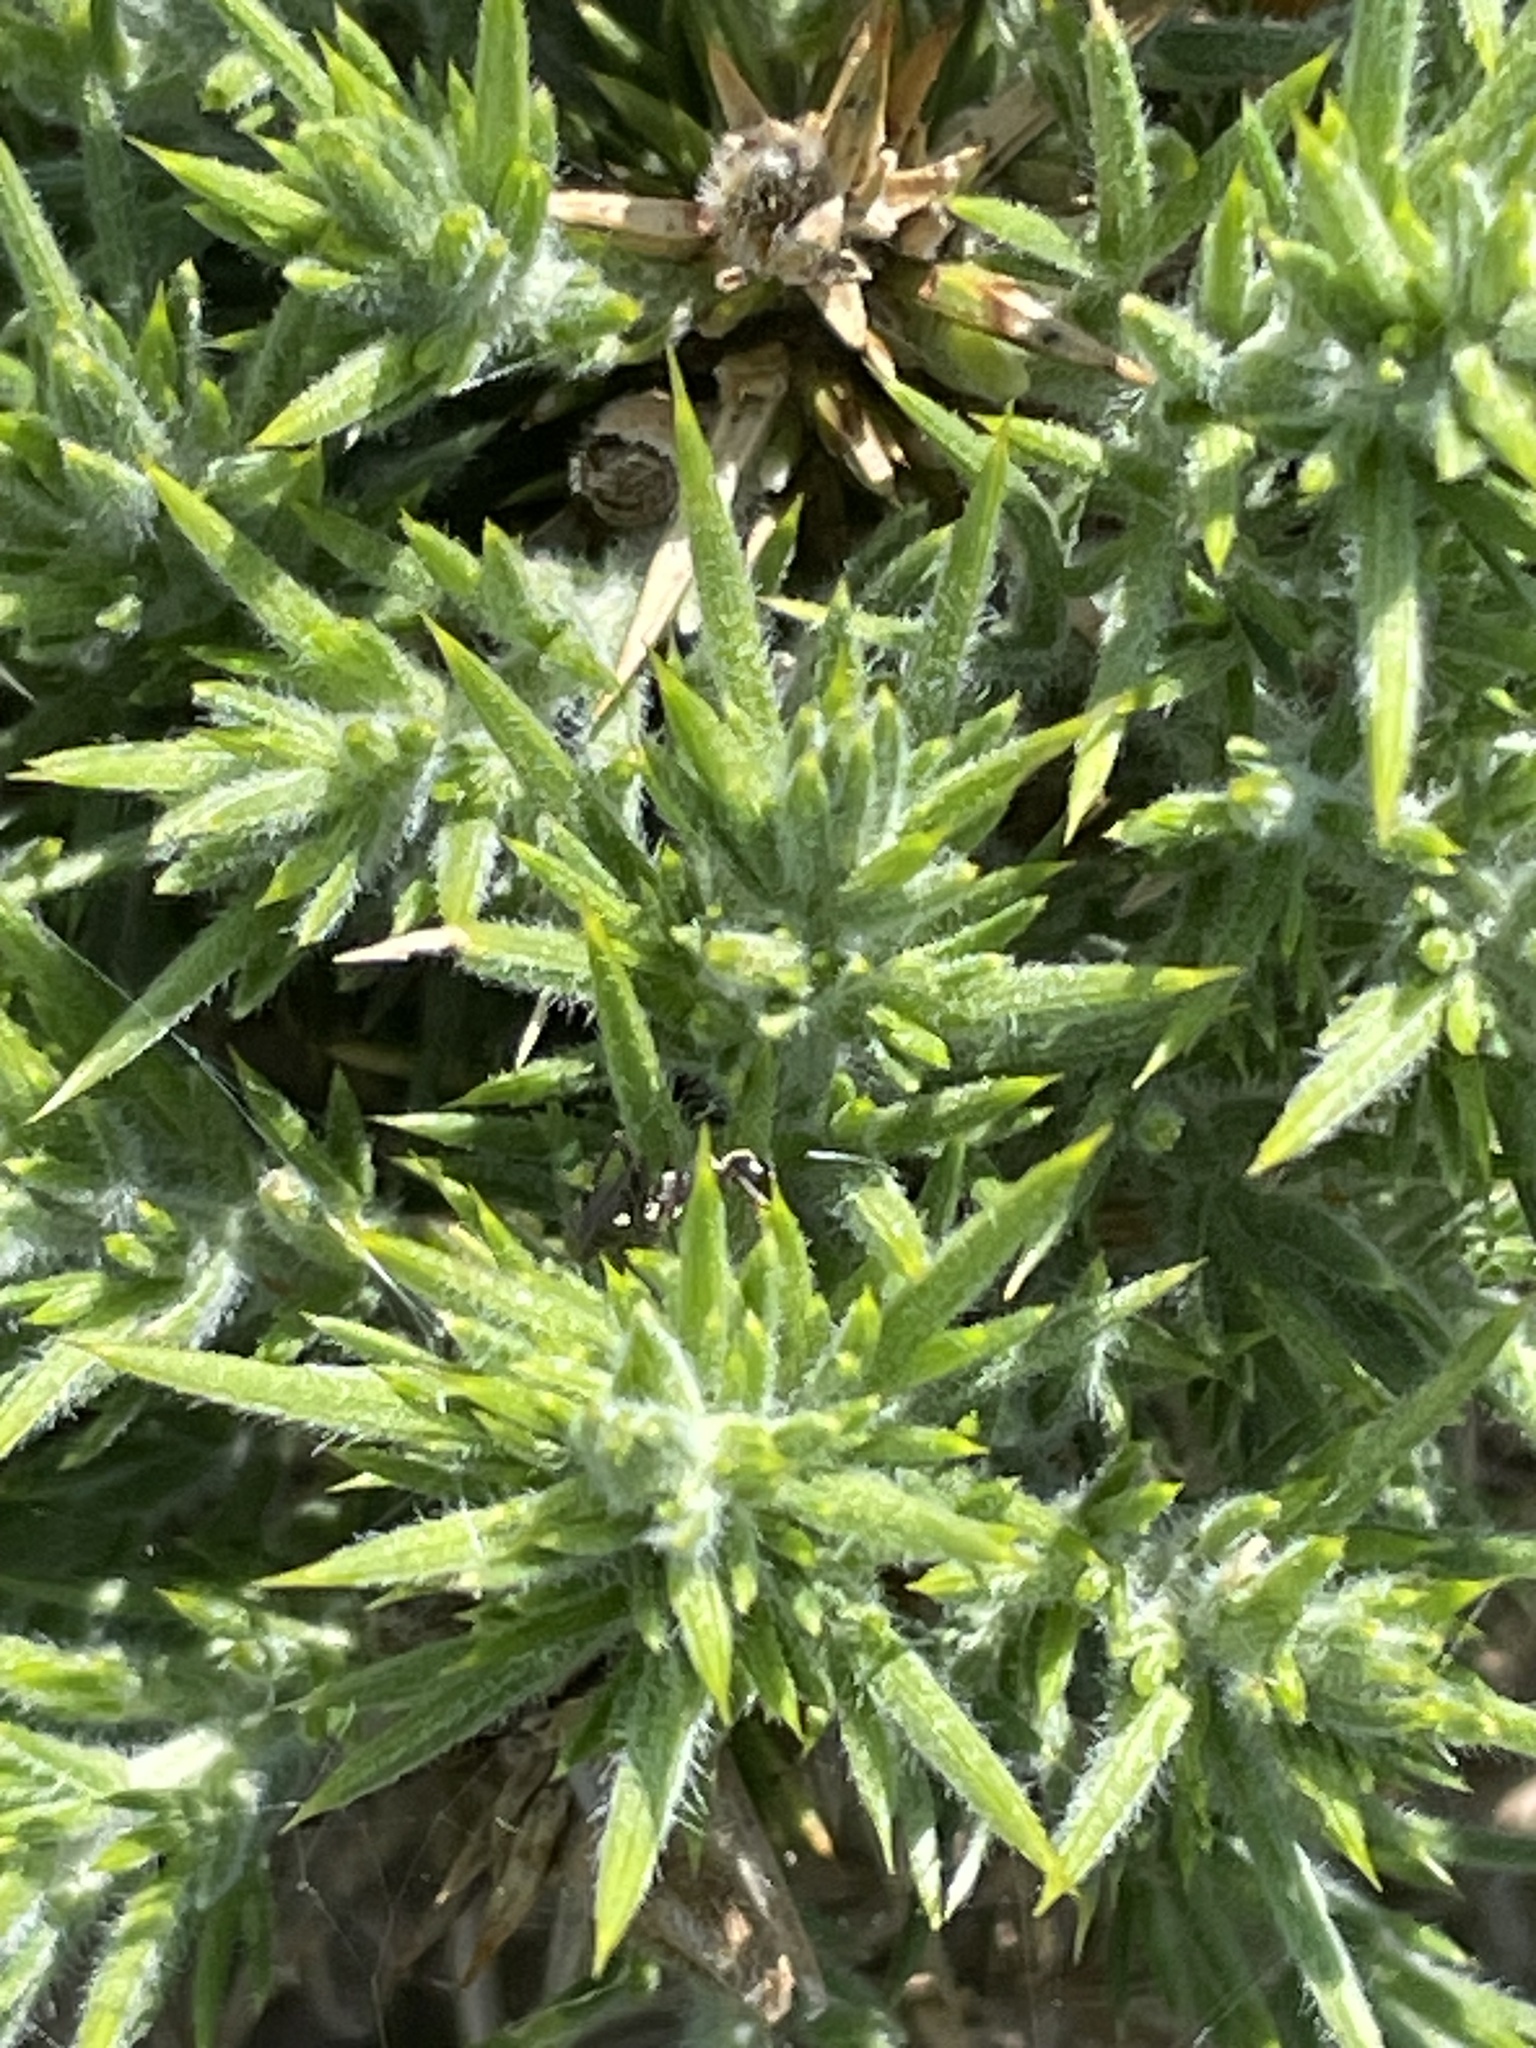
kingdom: Plantae
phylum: Tracheophyta
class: Magnoliopsida
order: Fabales
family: Fabaceae
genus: Ulex
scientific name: Ulex europaeus
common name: Common gorse
